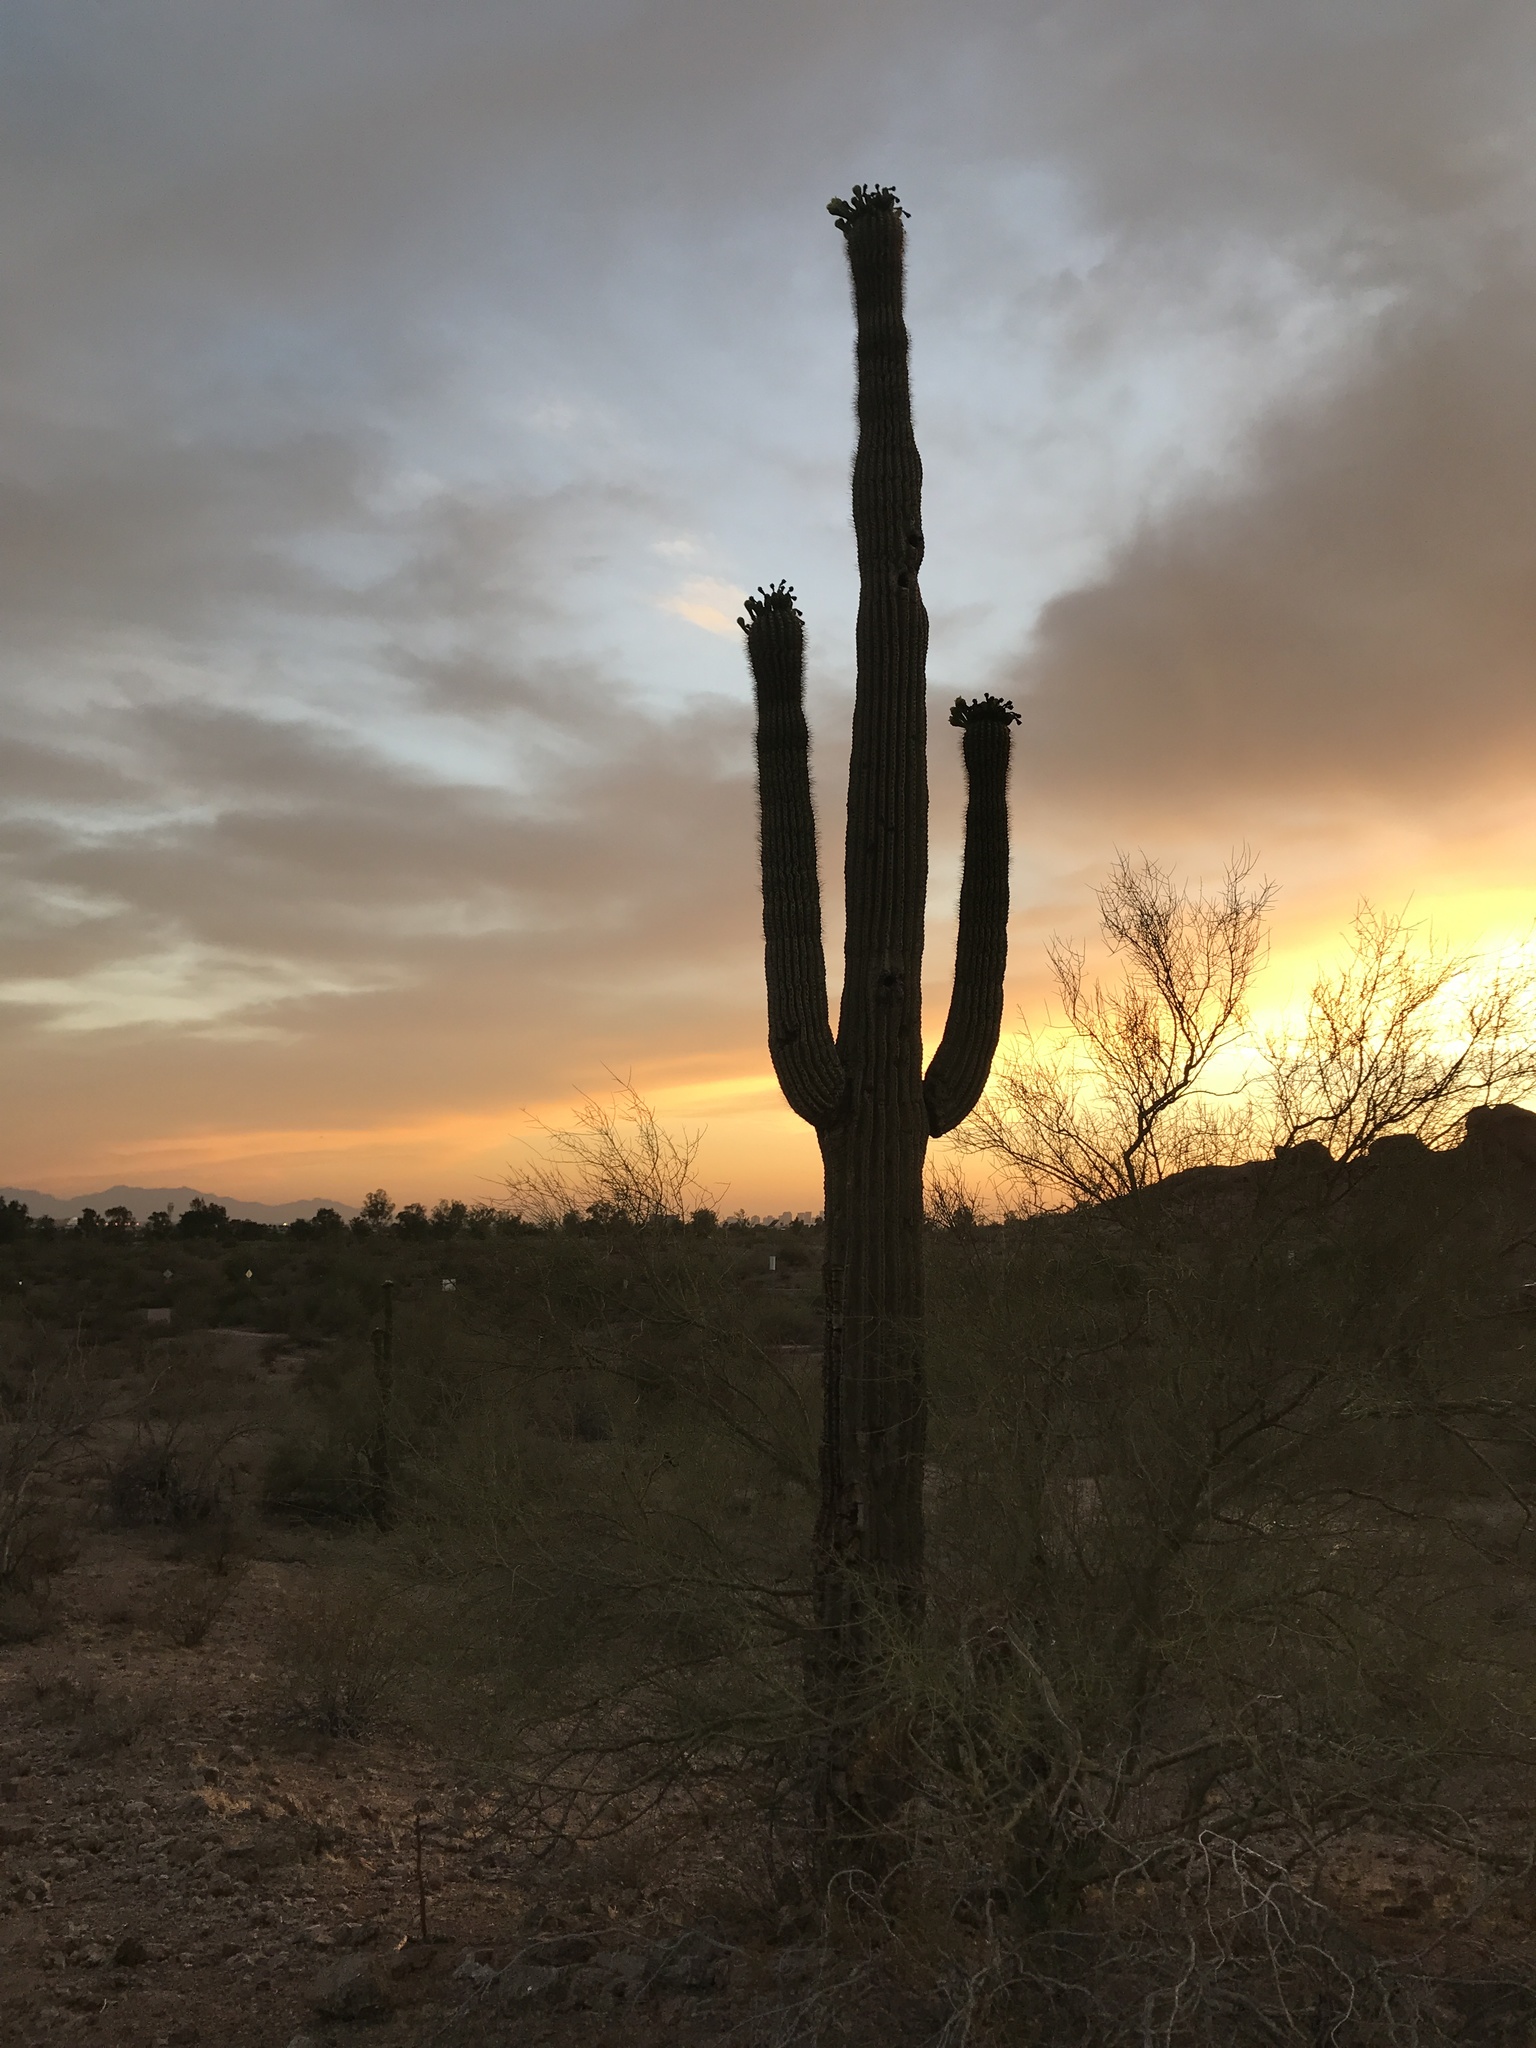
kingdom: Plantae
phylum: Tracheophyta
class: Magnoliopsida
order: Caryophyllales
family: Cactaceae
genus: Carnegiea
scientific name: Carnegiea gigantea
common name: Saguaro
